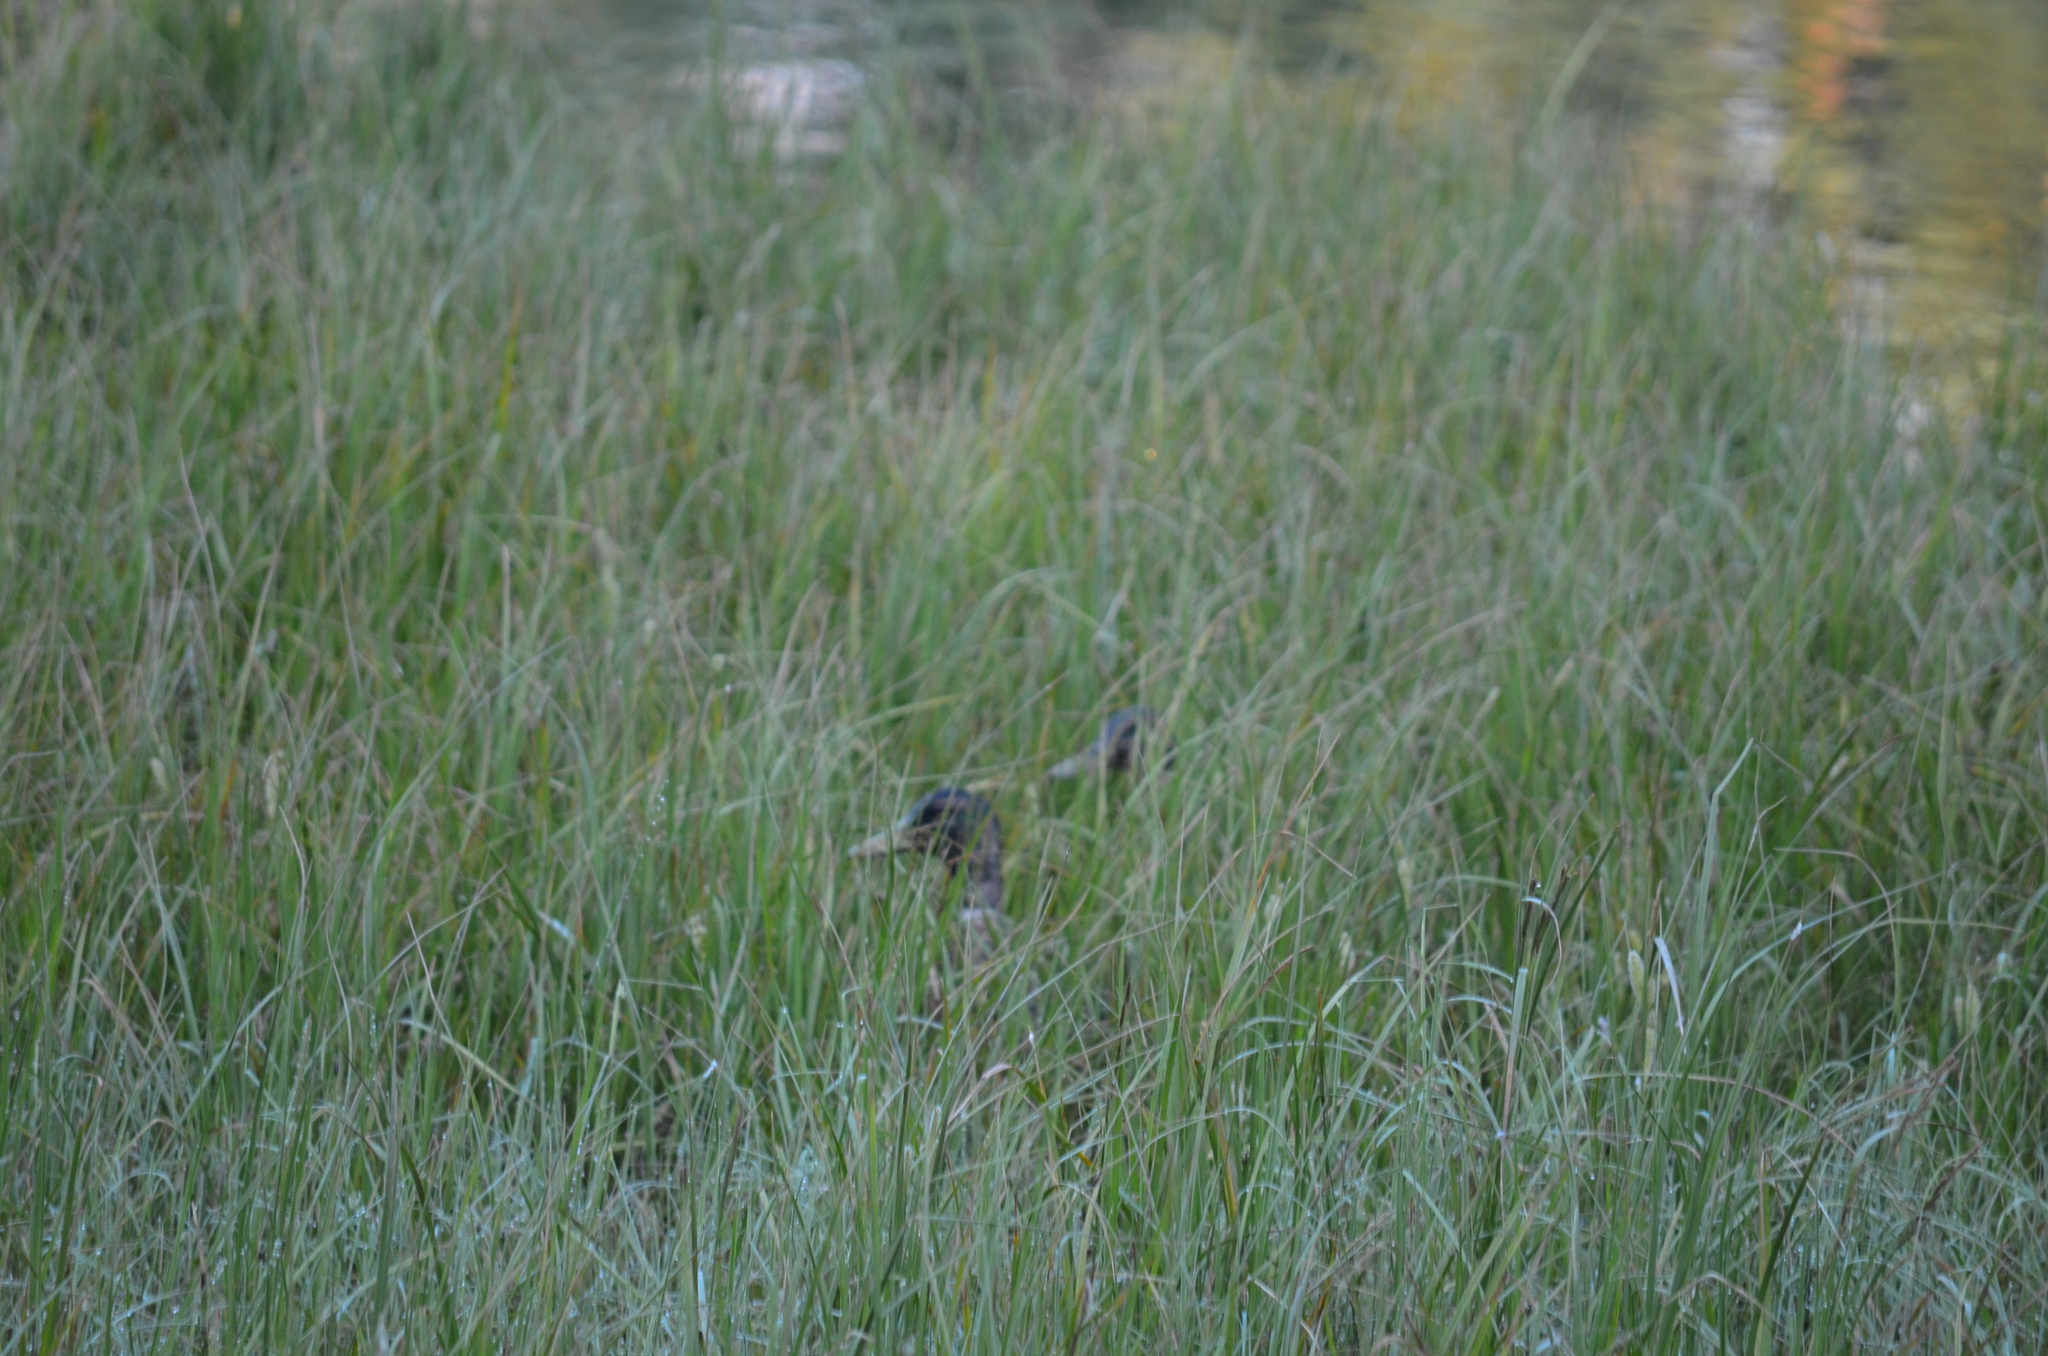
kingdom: Animalia
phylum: Chordata
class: Aves
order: Anseriformes
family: Anatidae
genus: Anas
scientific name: Anas platyrhynchos
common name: Mallard
